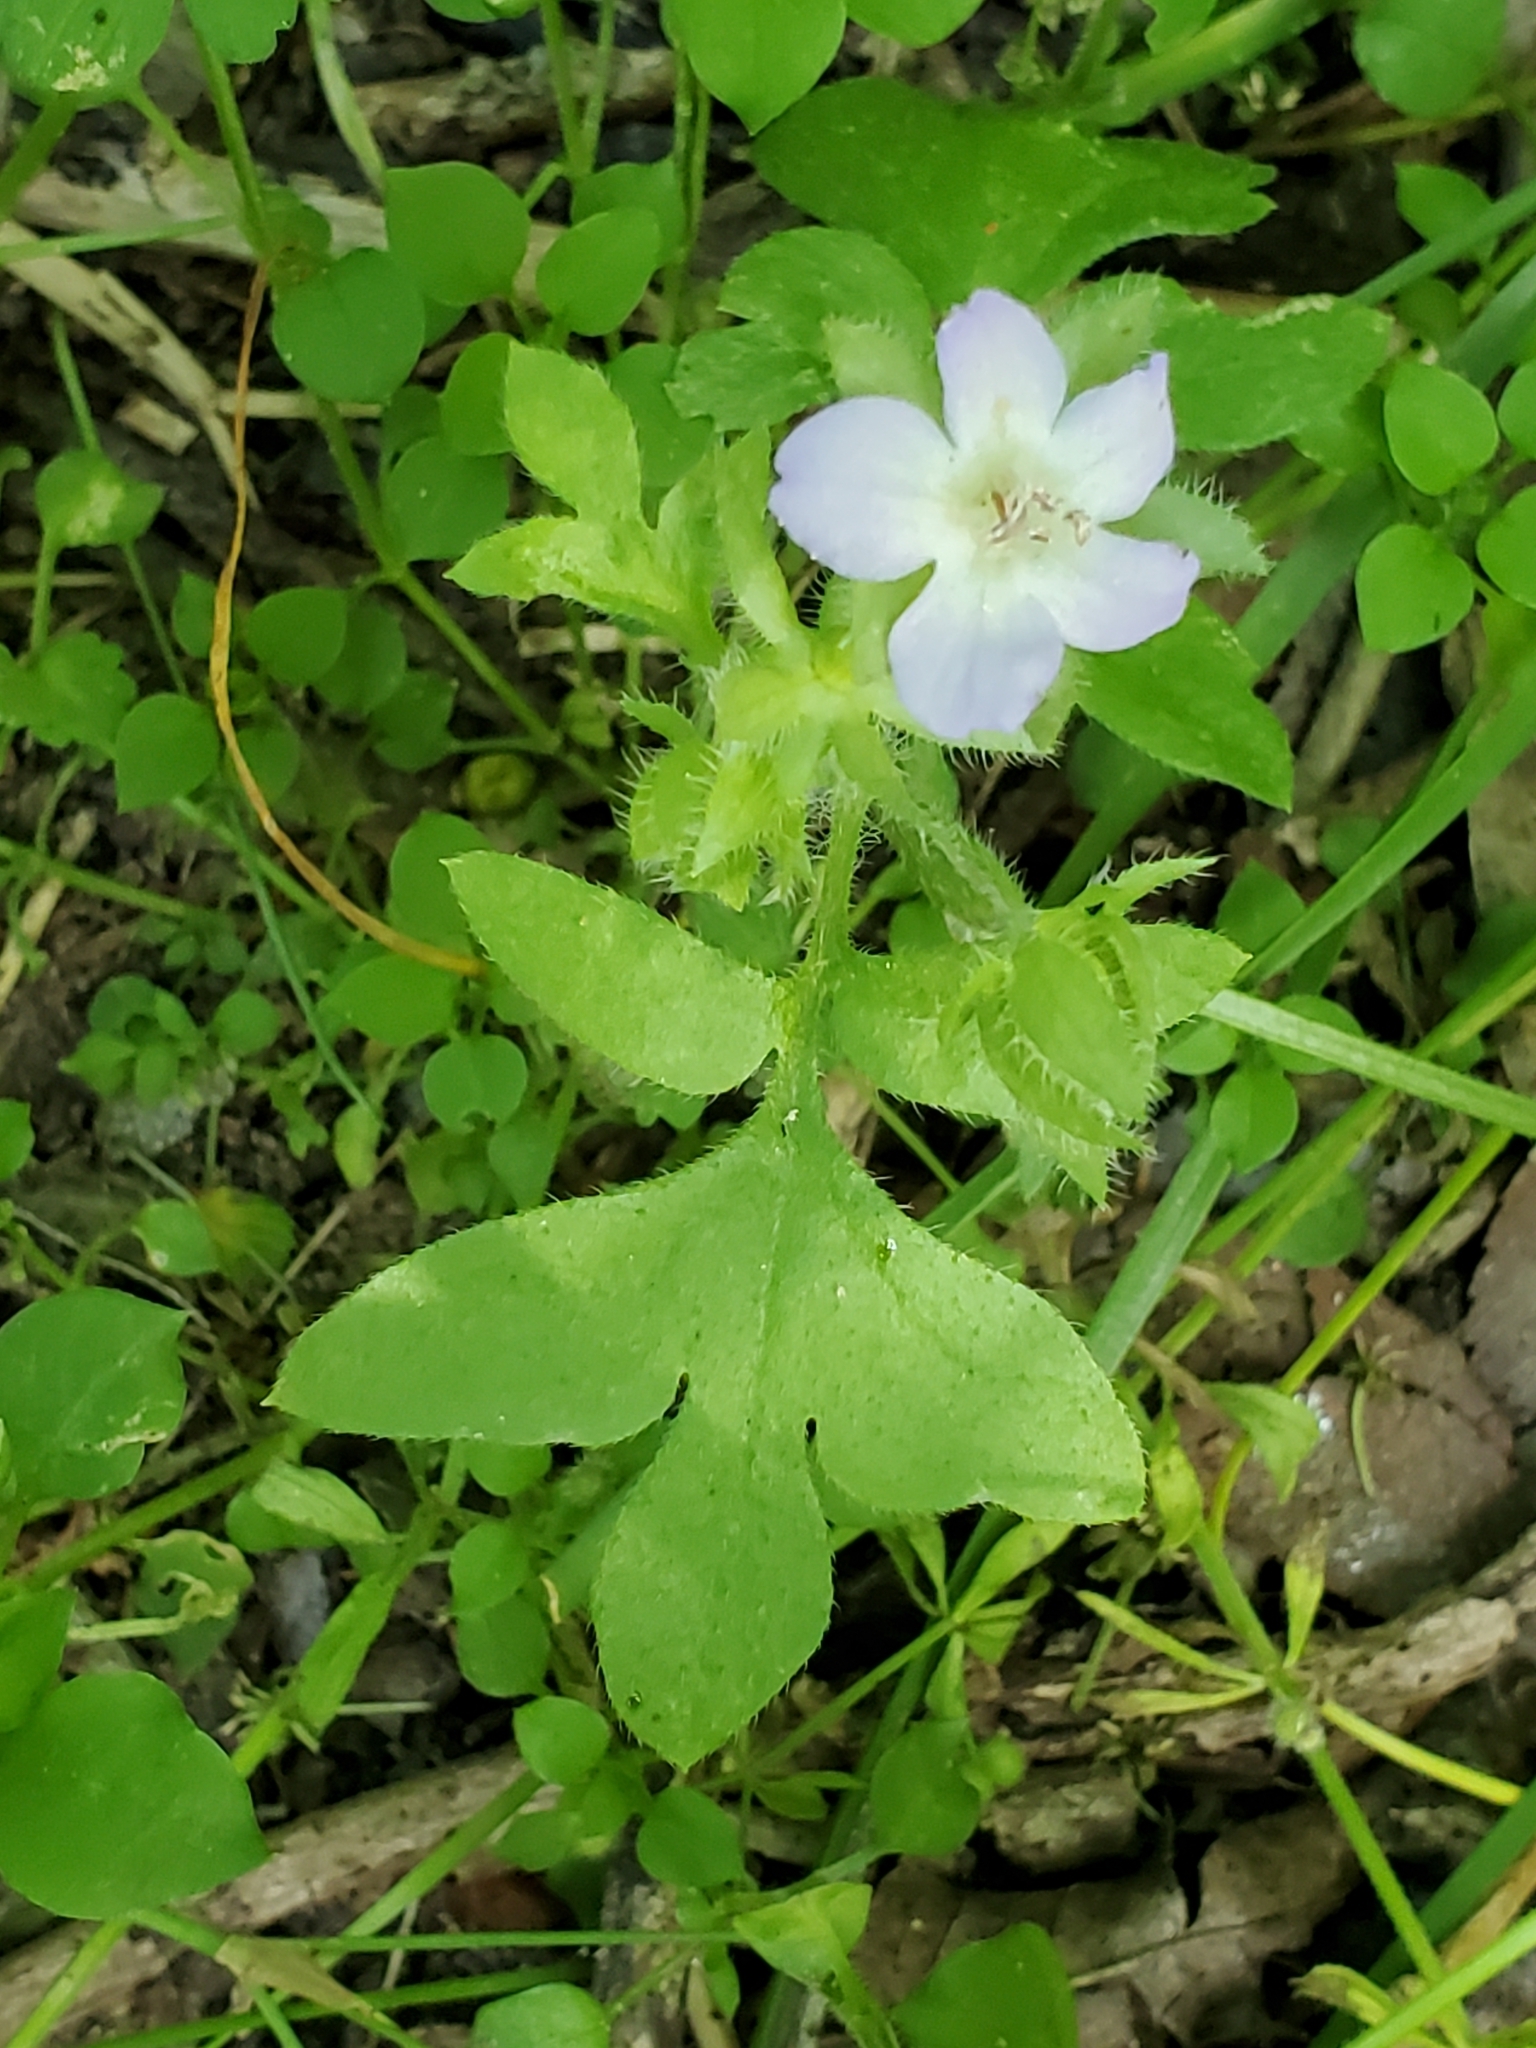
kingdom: Plantae
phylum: Tracheophyta
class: Magnoliopsida
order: Boraginales
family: Hydrophyllaceae
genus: Nemophila
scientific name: Nemophila phacelioides
